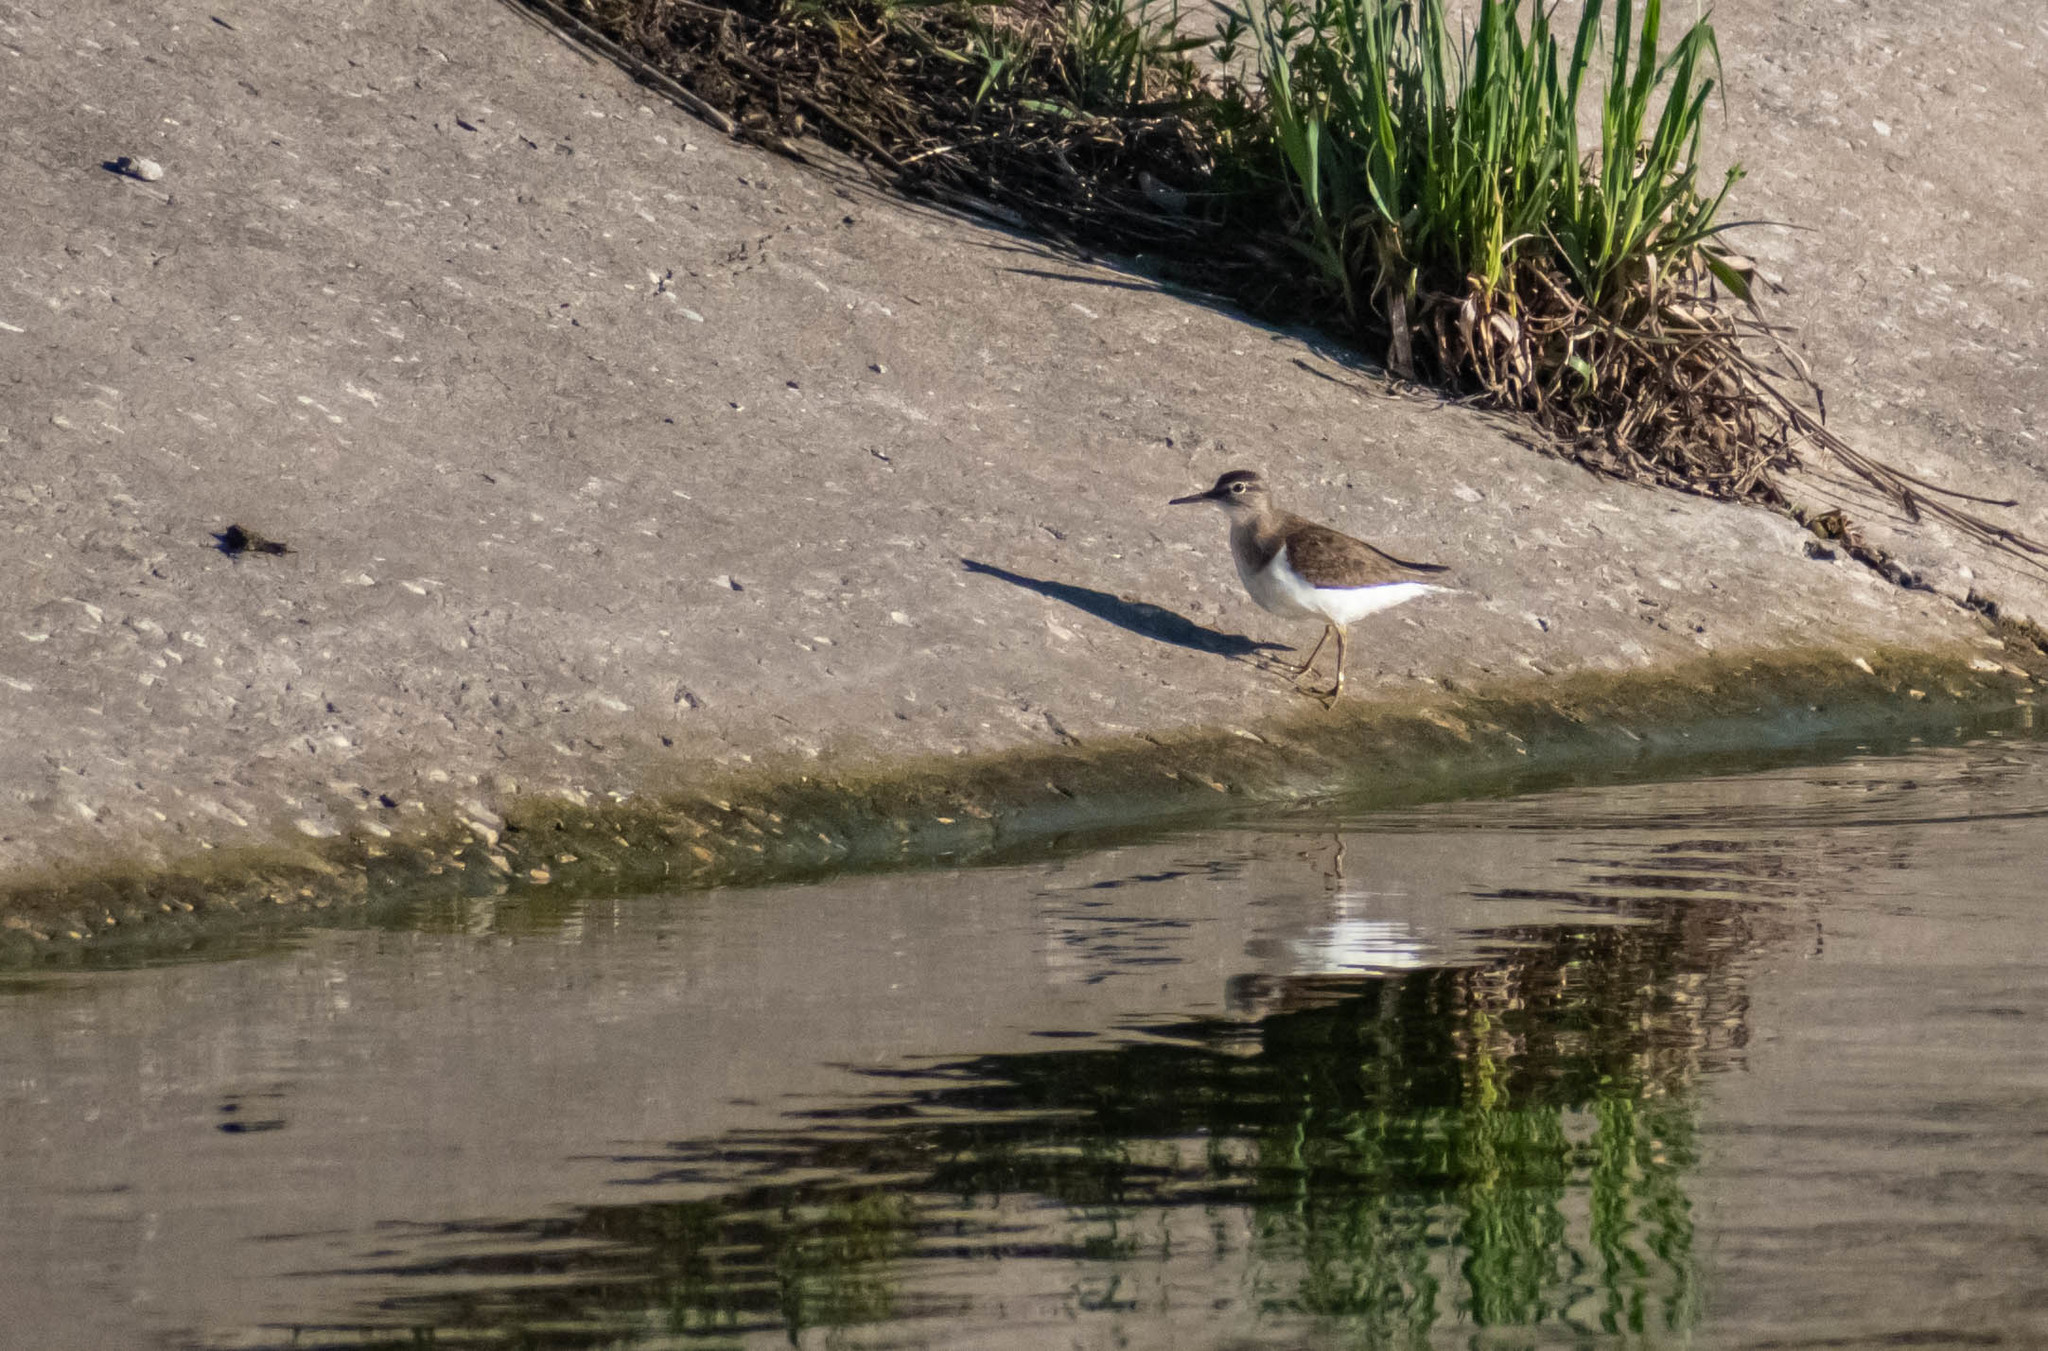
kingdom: Animalia
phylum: Chordata
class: Aves
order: Charadriiformes
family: Scolopacidae
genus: Actitis
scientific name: Actitis hypoleucos
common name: Common sandpiper
